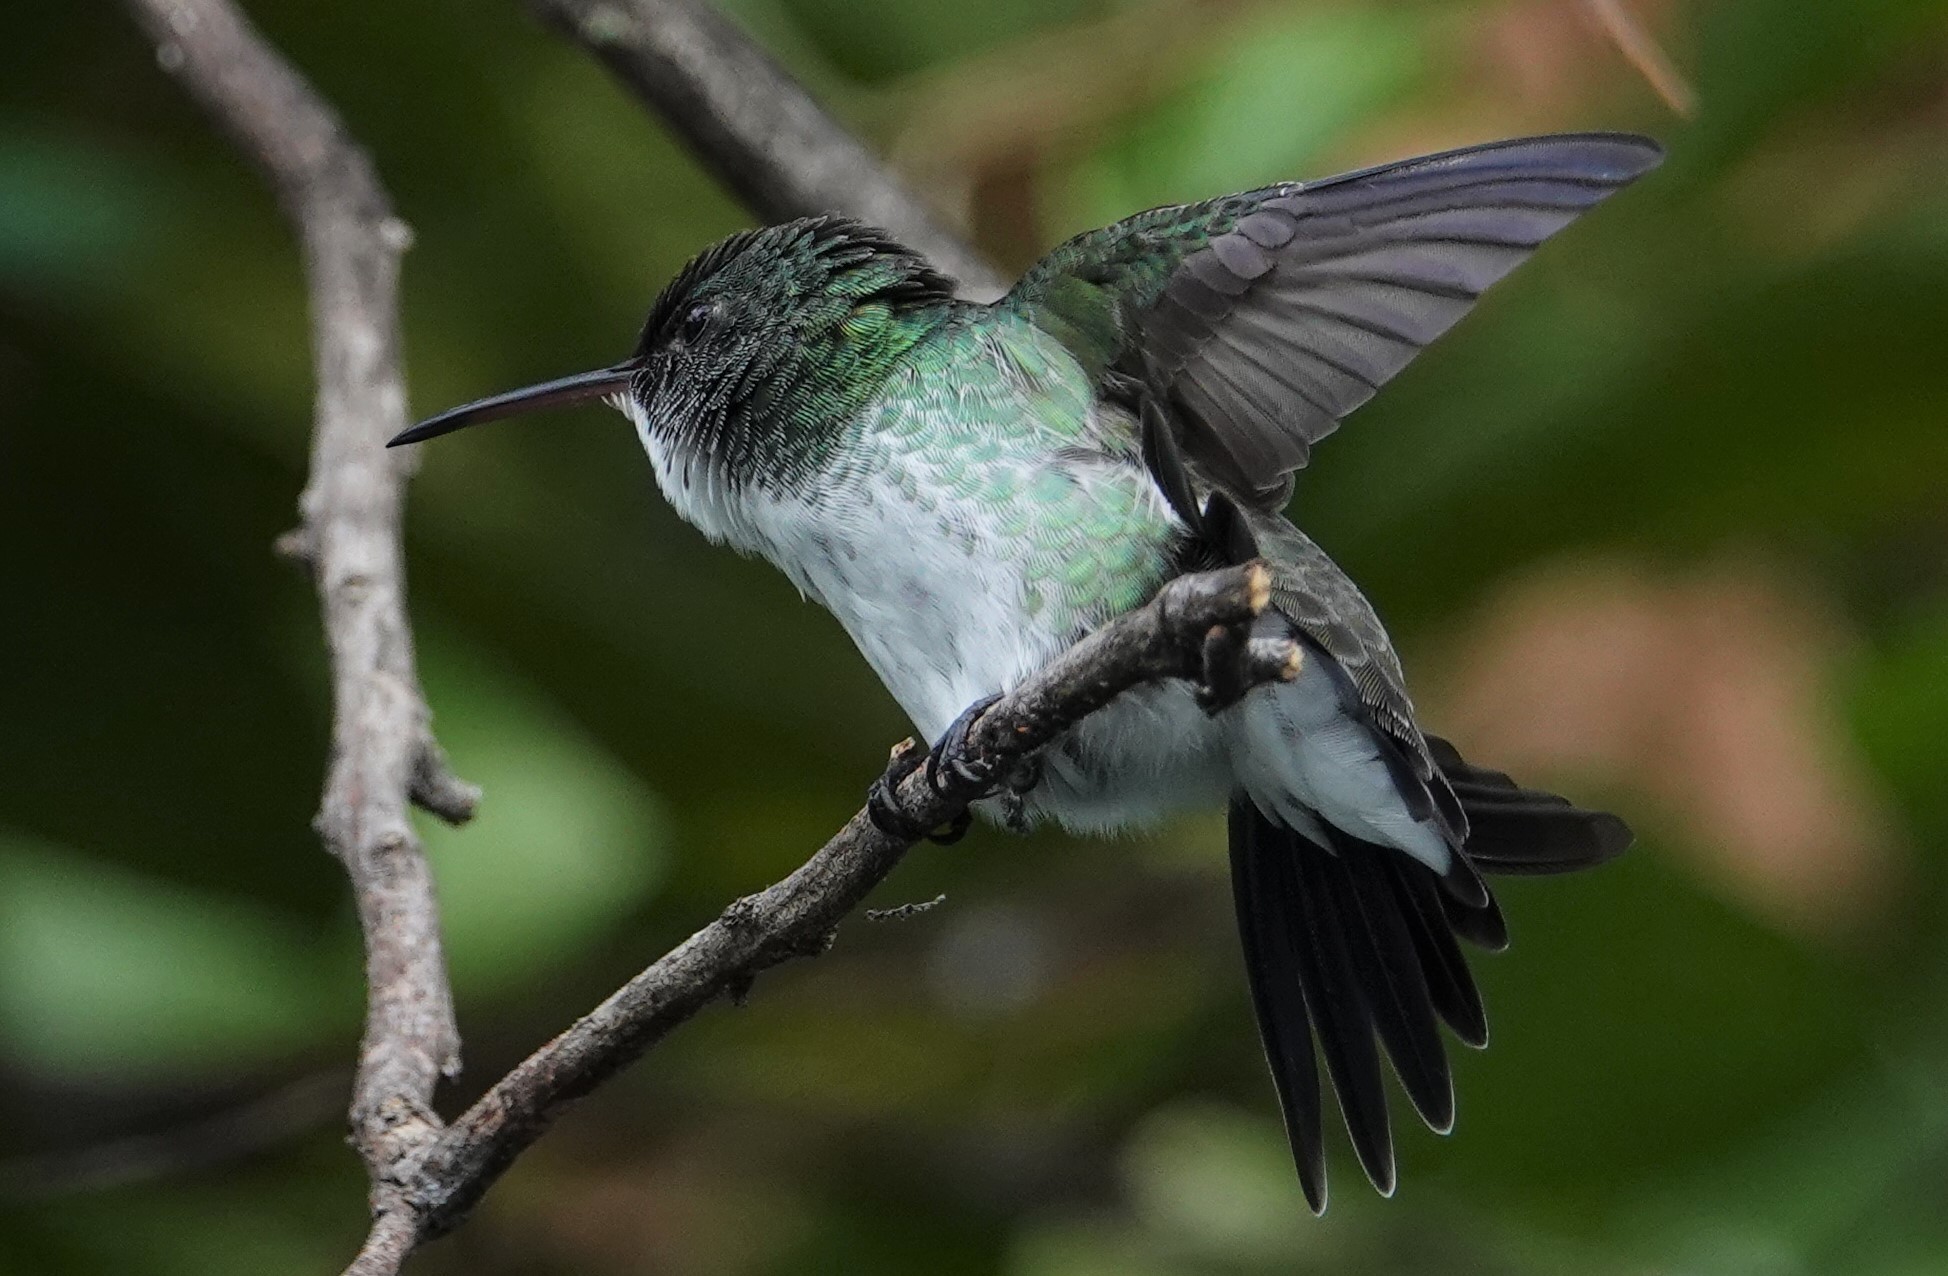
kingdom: Animalia
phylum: Chordata
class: Aves
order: Apodiformes
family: Trochilidae
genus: Chrysuronia
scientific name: Chrysuronia leucogaster
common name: Plain-bellied emerald
